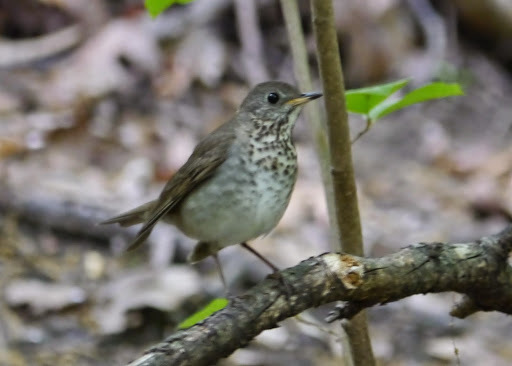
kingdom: Animalia
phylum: Chordata
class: Aves
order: Passeriformes
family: Turdidae
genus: Catharus
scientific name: Catharus minimus
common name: Grey-cheeked thrush
